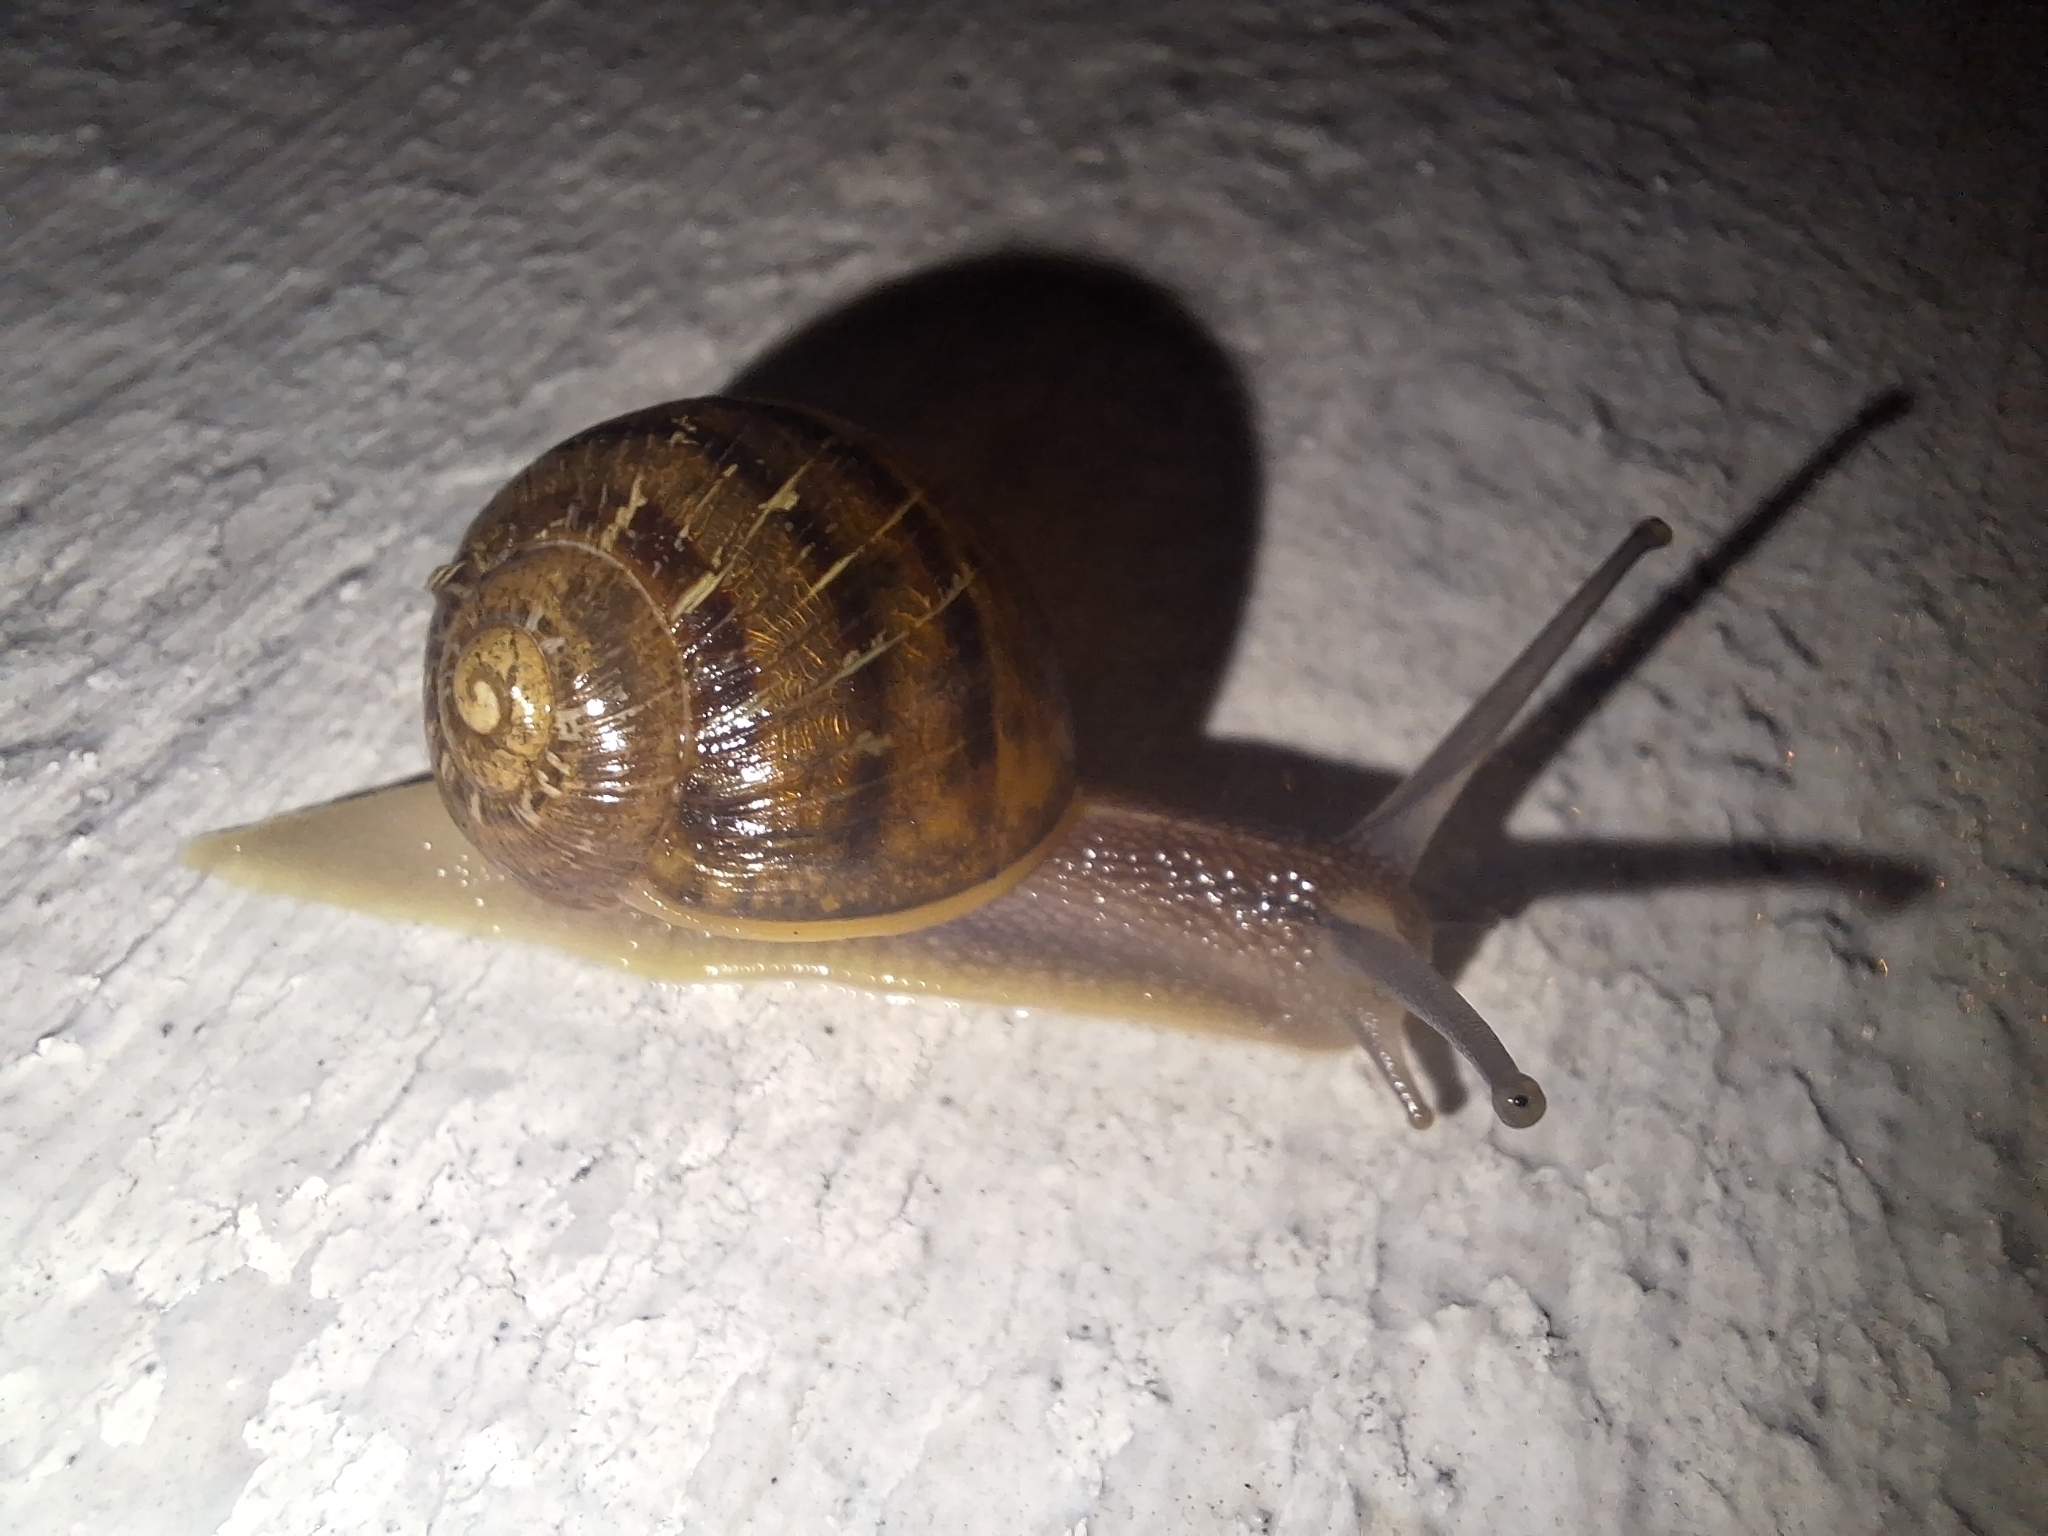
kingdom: Animalia
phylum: Mollusca
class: Gastropoda
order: Stylommatophora
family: Helicidae
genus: Cornu
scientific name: Cornu aspersum
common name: Brown garden snail
